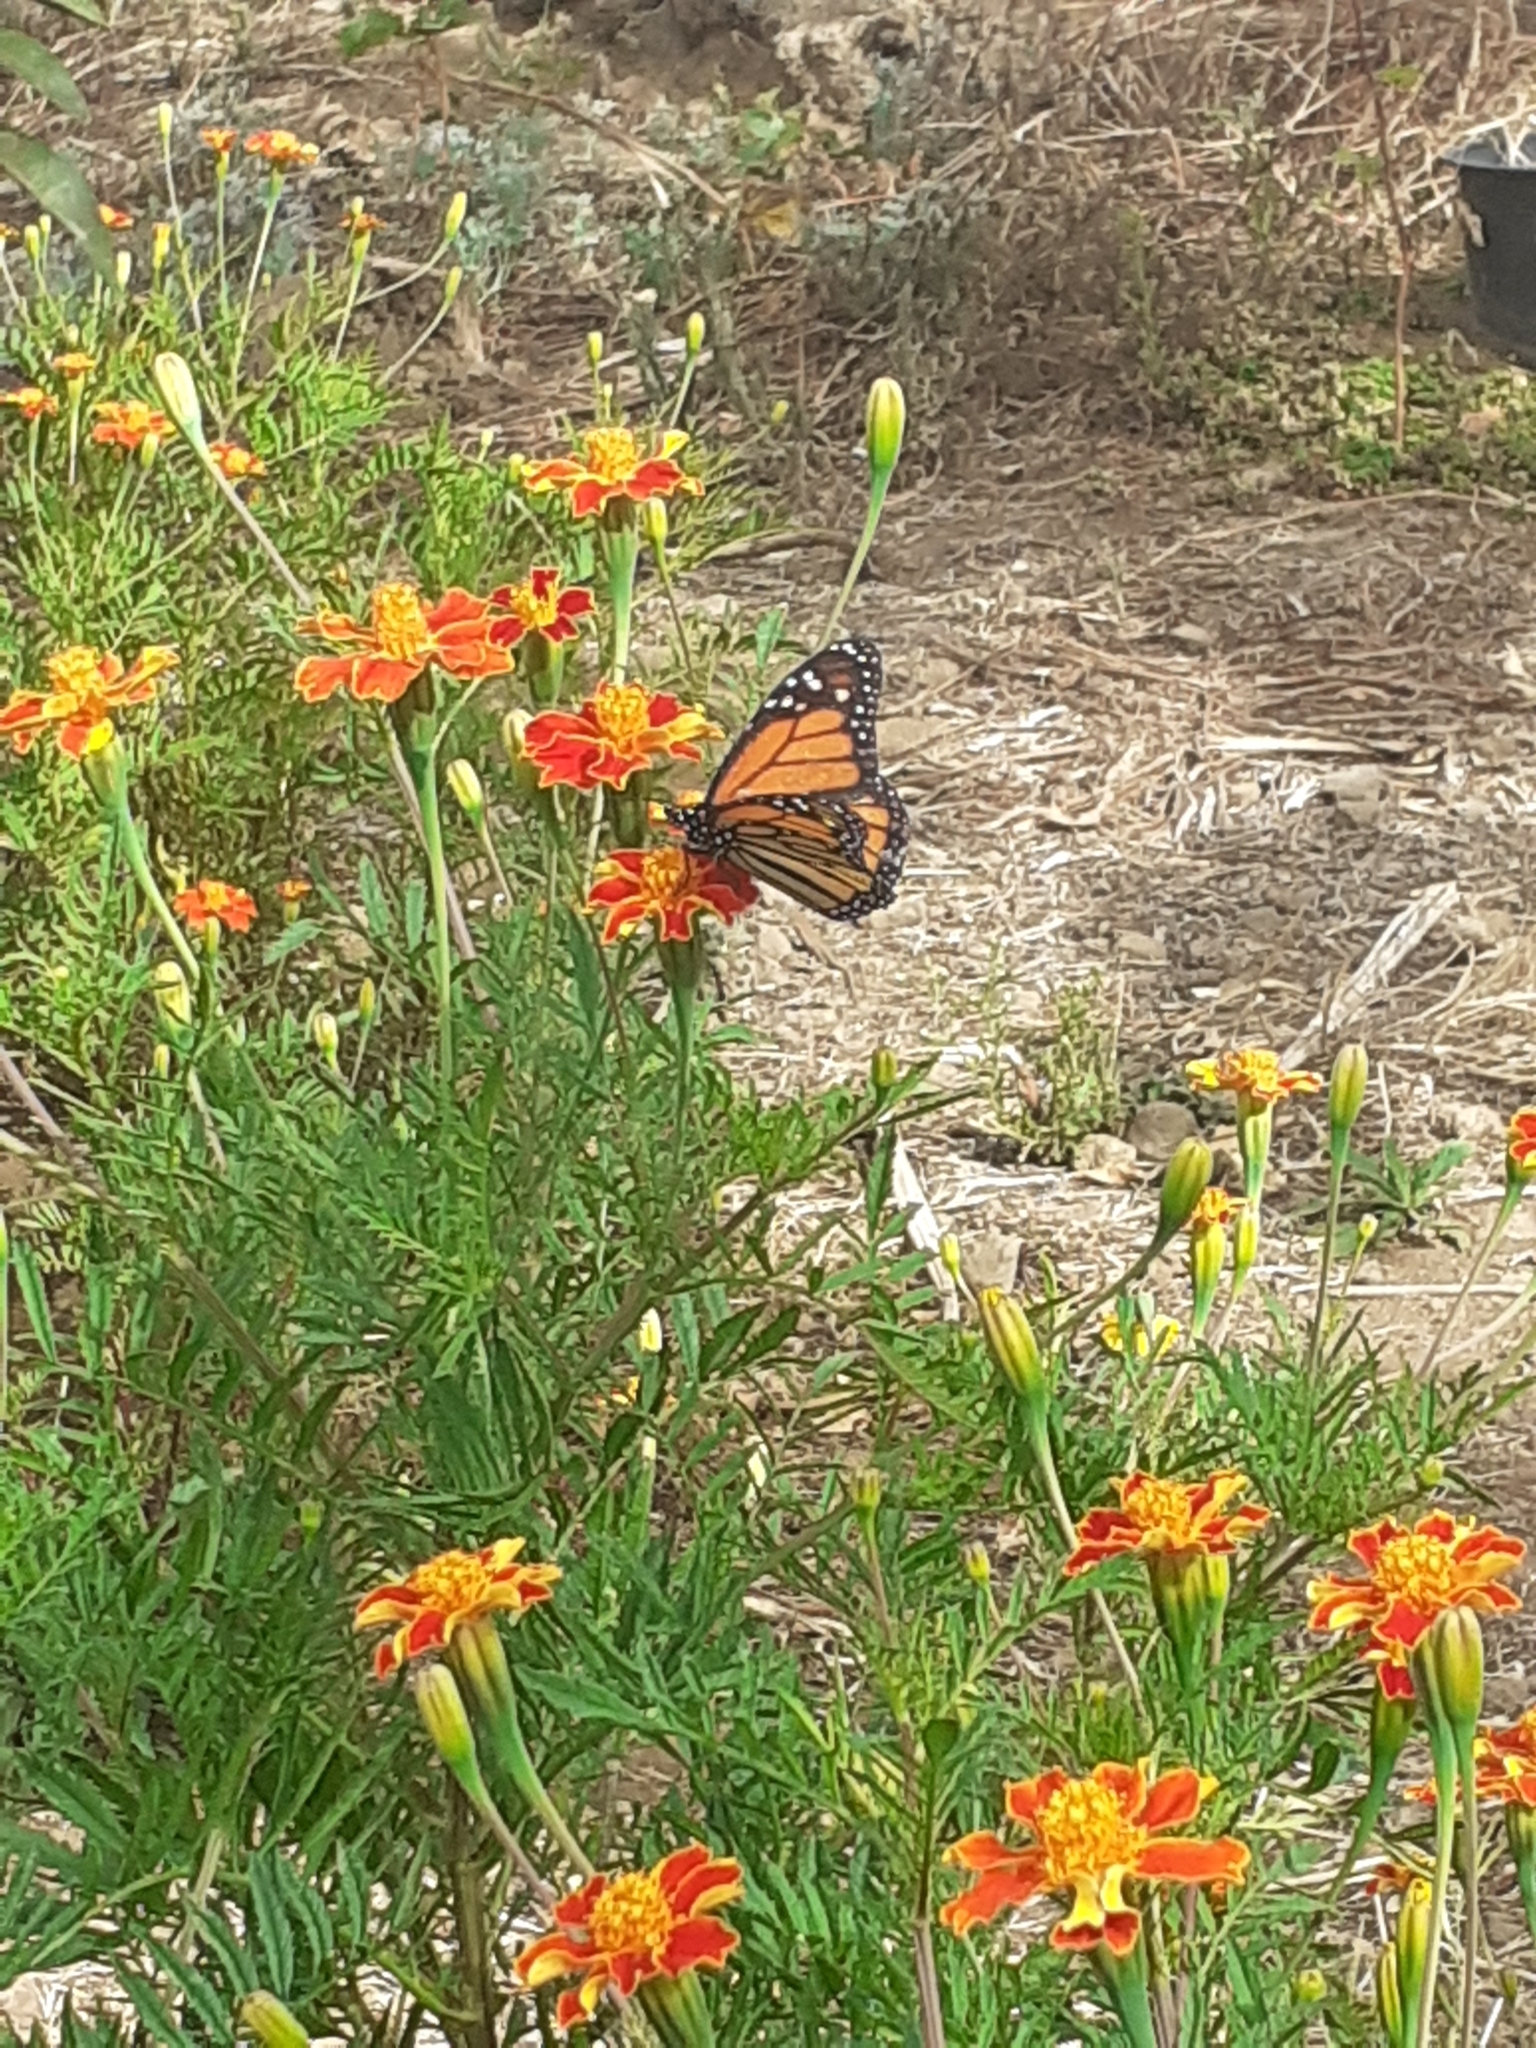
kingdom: Animalia
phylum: Arthropoda
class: Insecta
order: Lepidoptera
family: Nymphalidae
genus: Danaus
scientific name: Danaus plexippus
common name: Monarch
